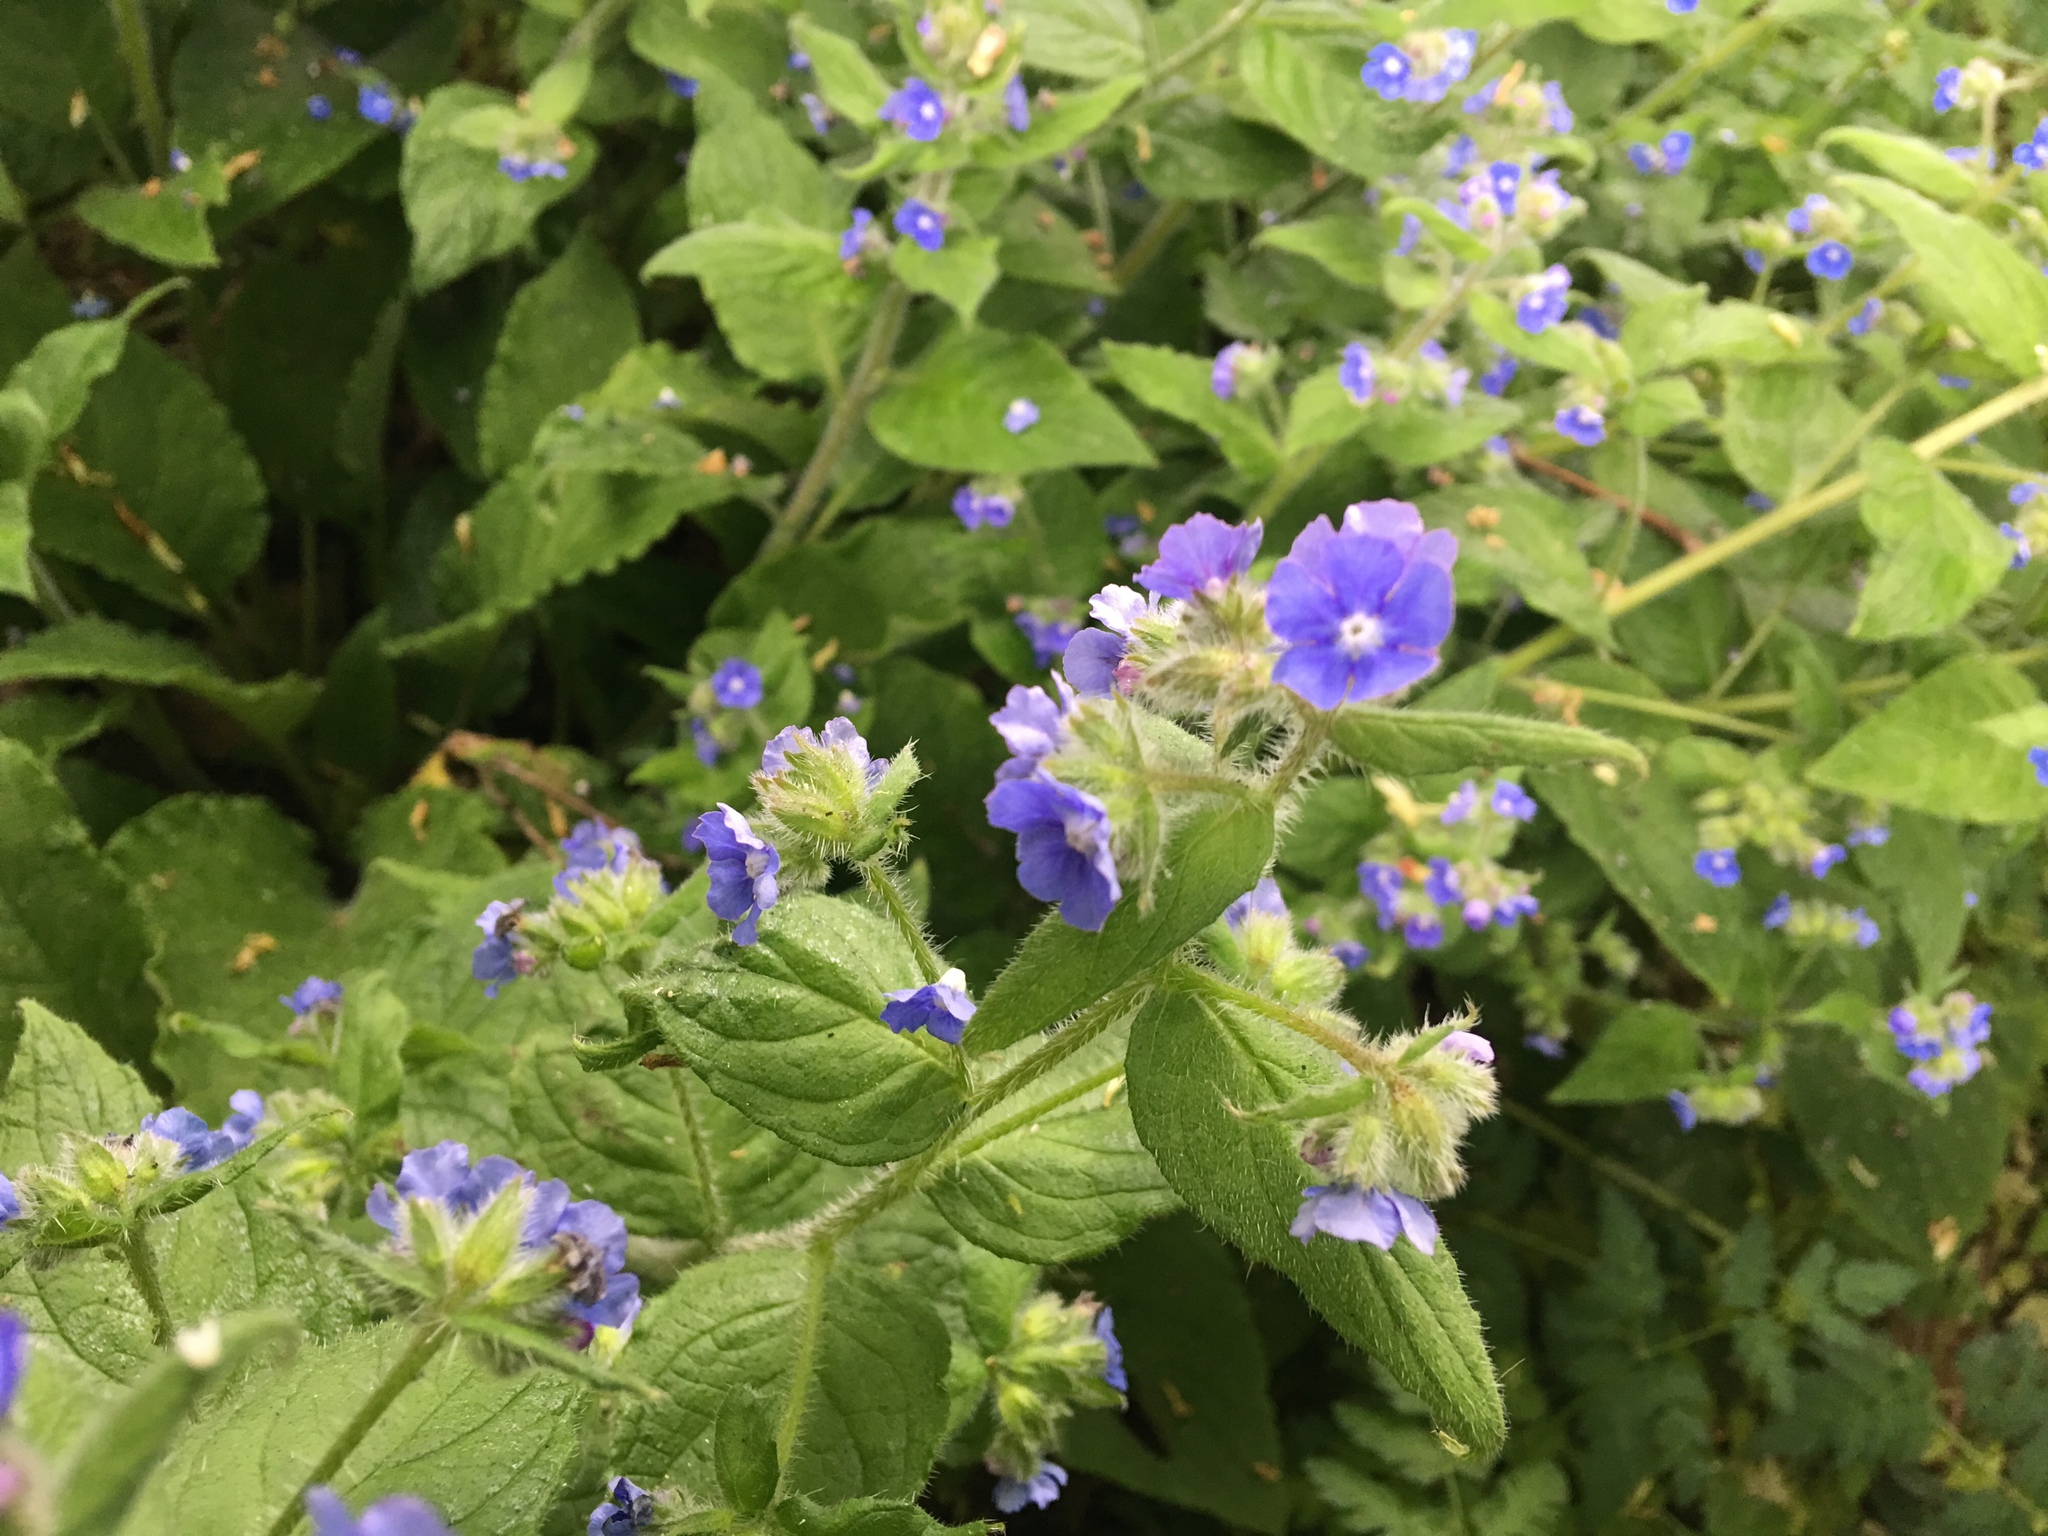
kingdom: Plantae
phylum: Tracheophyta
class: Magnoliopsida
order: Boraginales
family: Boraginaceae
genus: Pentaglottis
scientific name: Pentaglottis sempervirens
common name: Green alkanet
